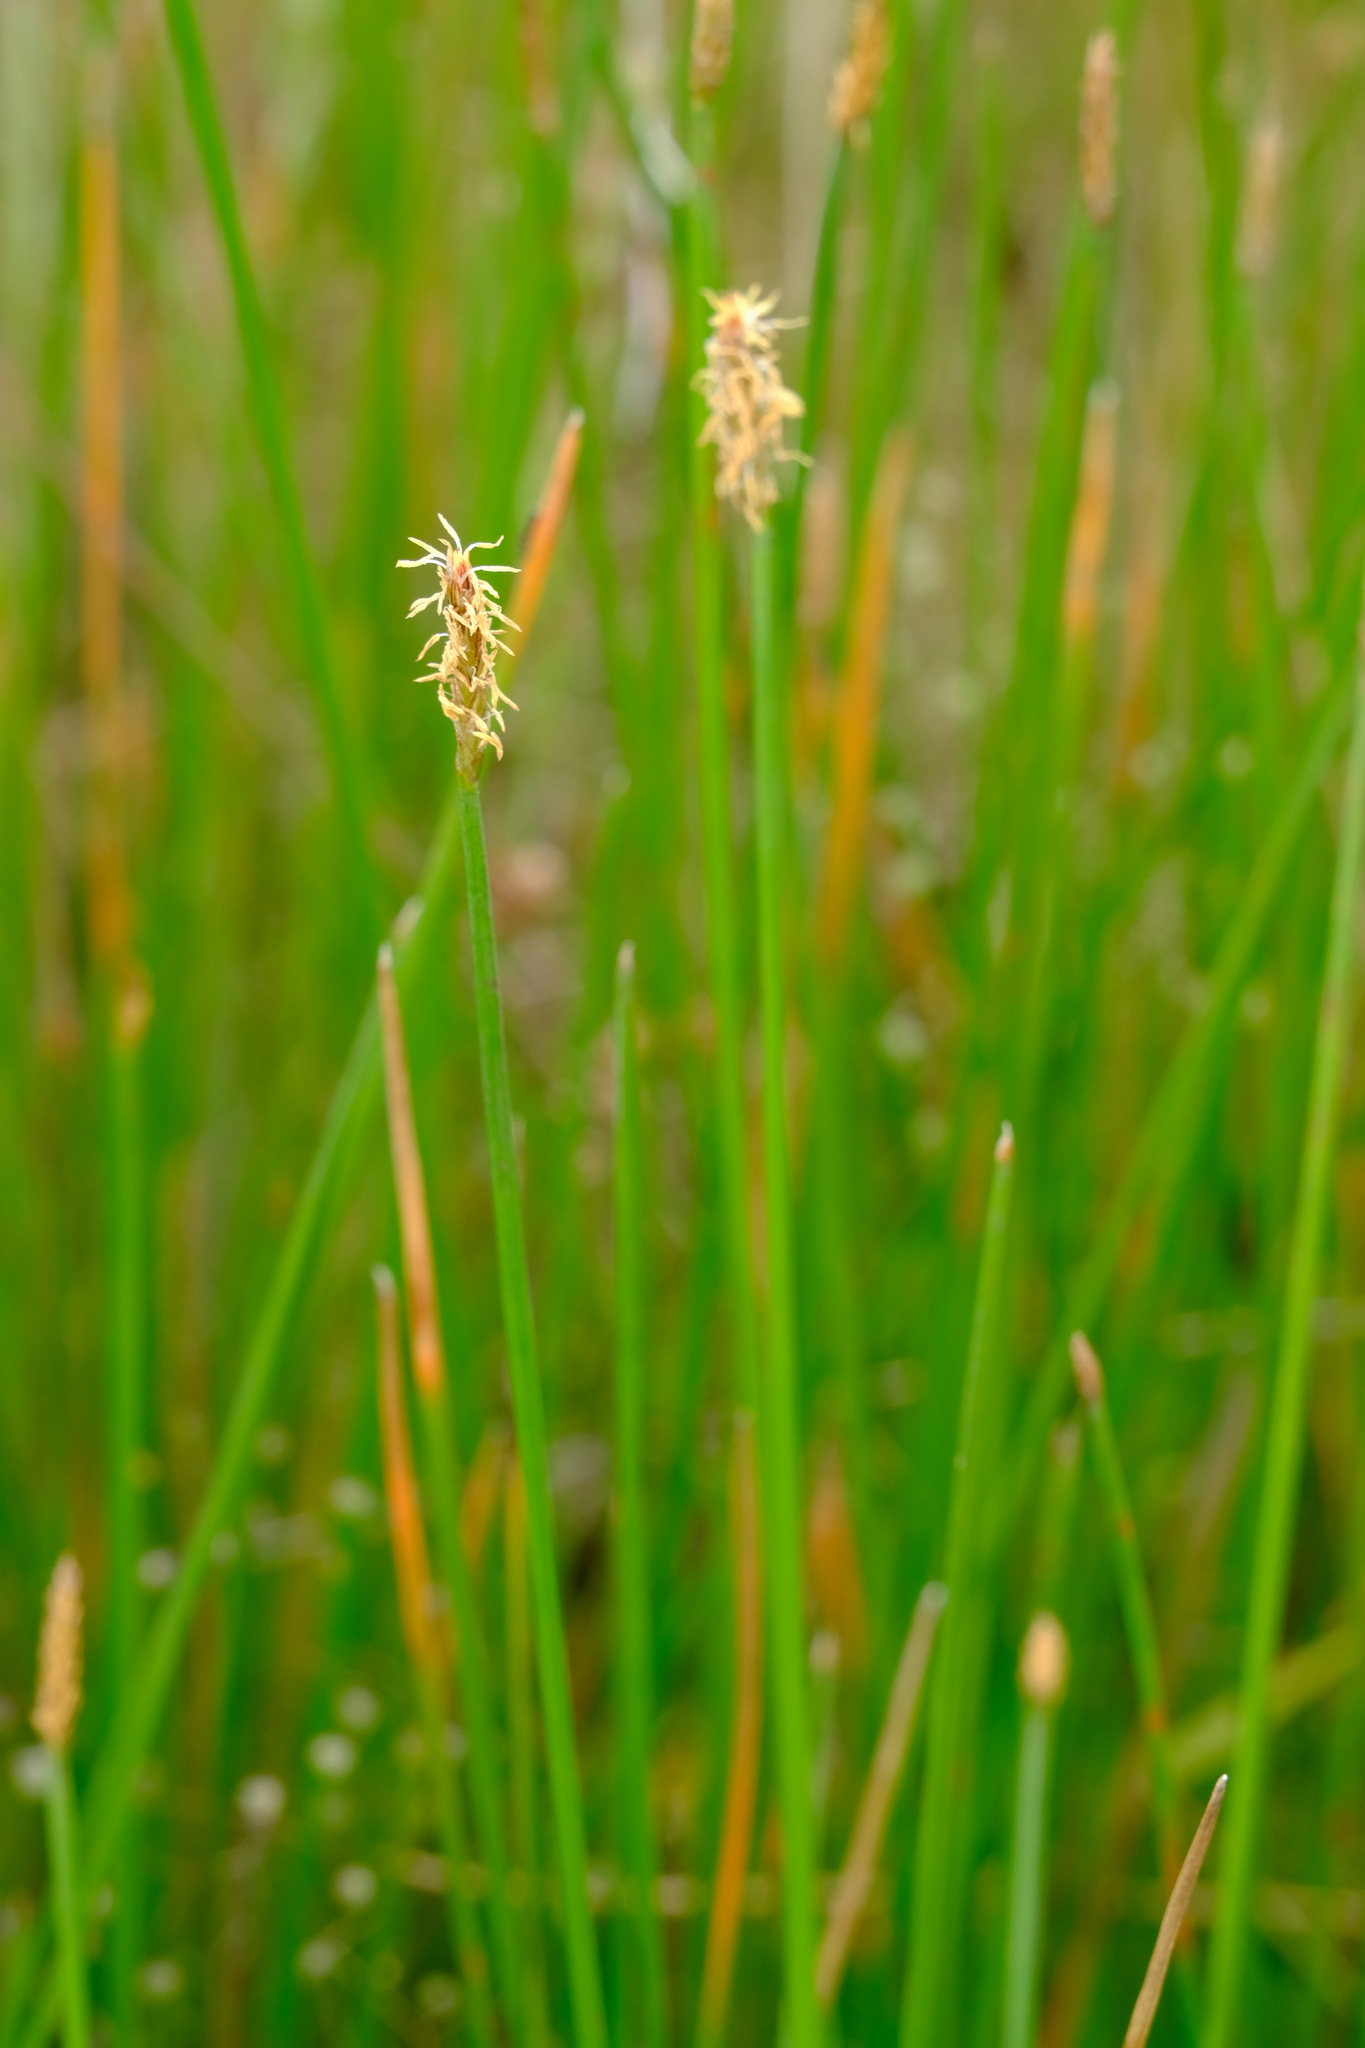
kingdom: Plantae
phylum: Tracheophyta
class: Liliopsida
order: Poales
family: Cyperaceae
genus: Eleocharis
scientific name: Eleocharis acuta
